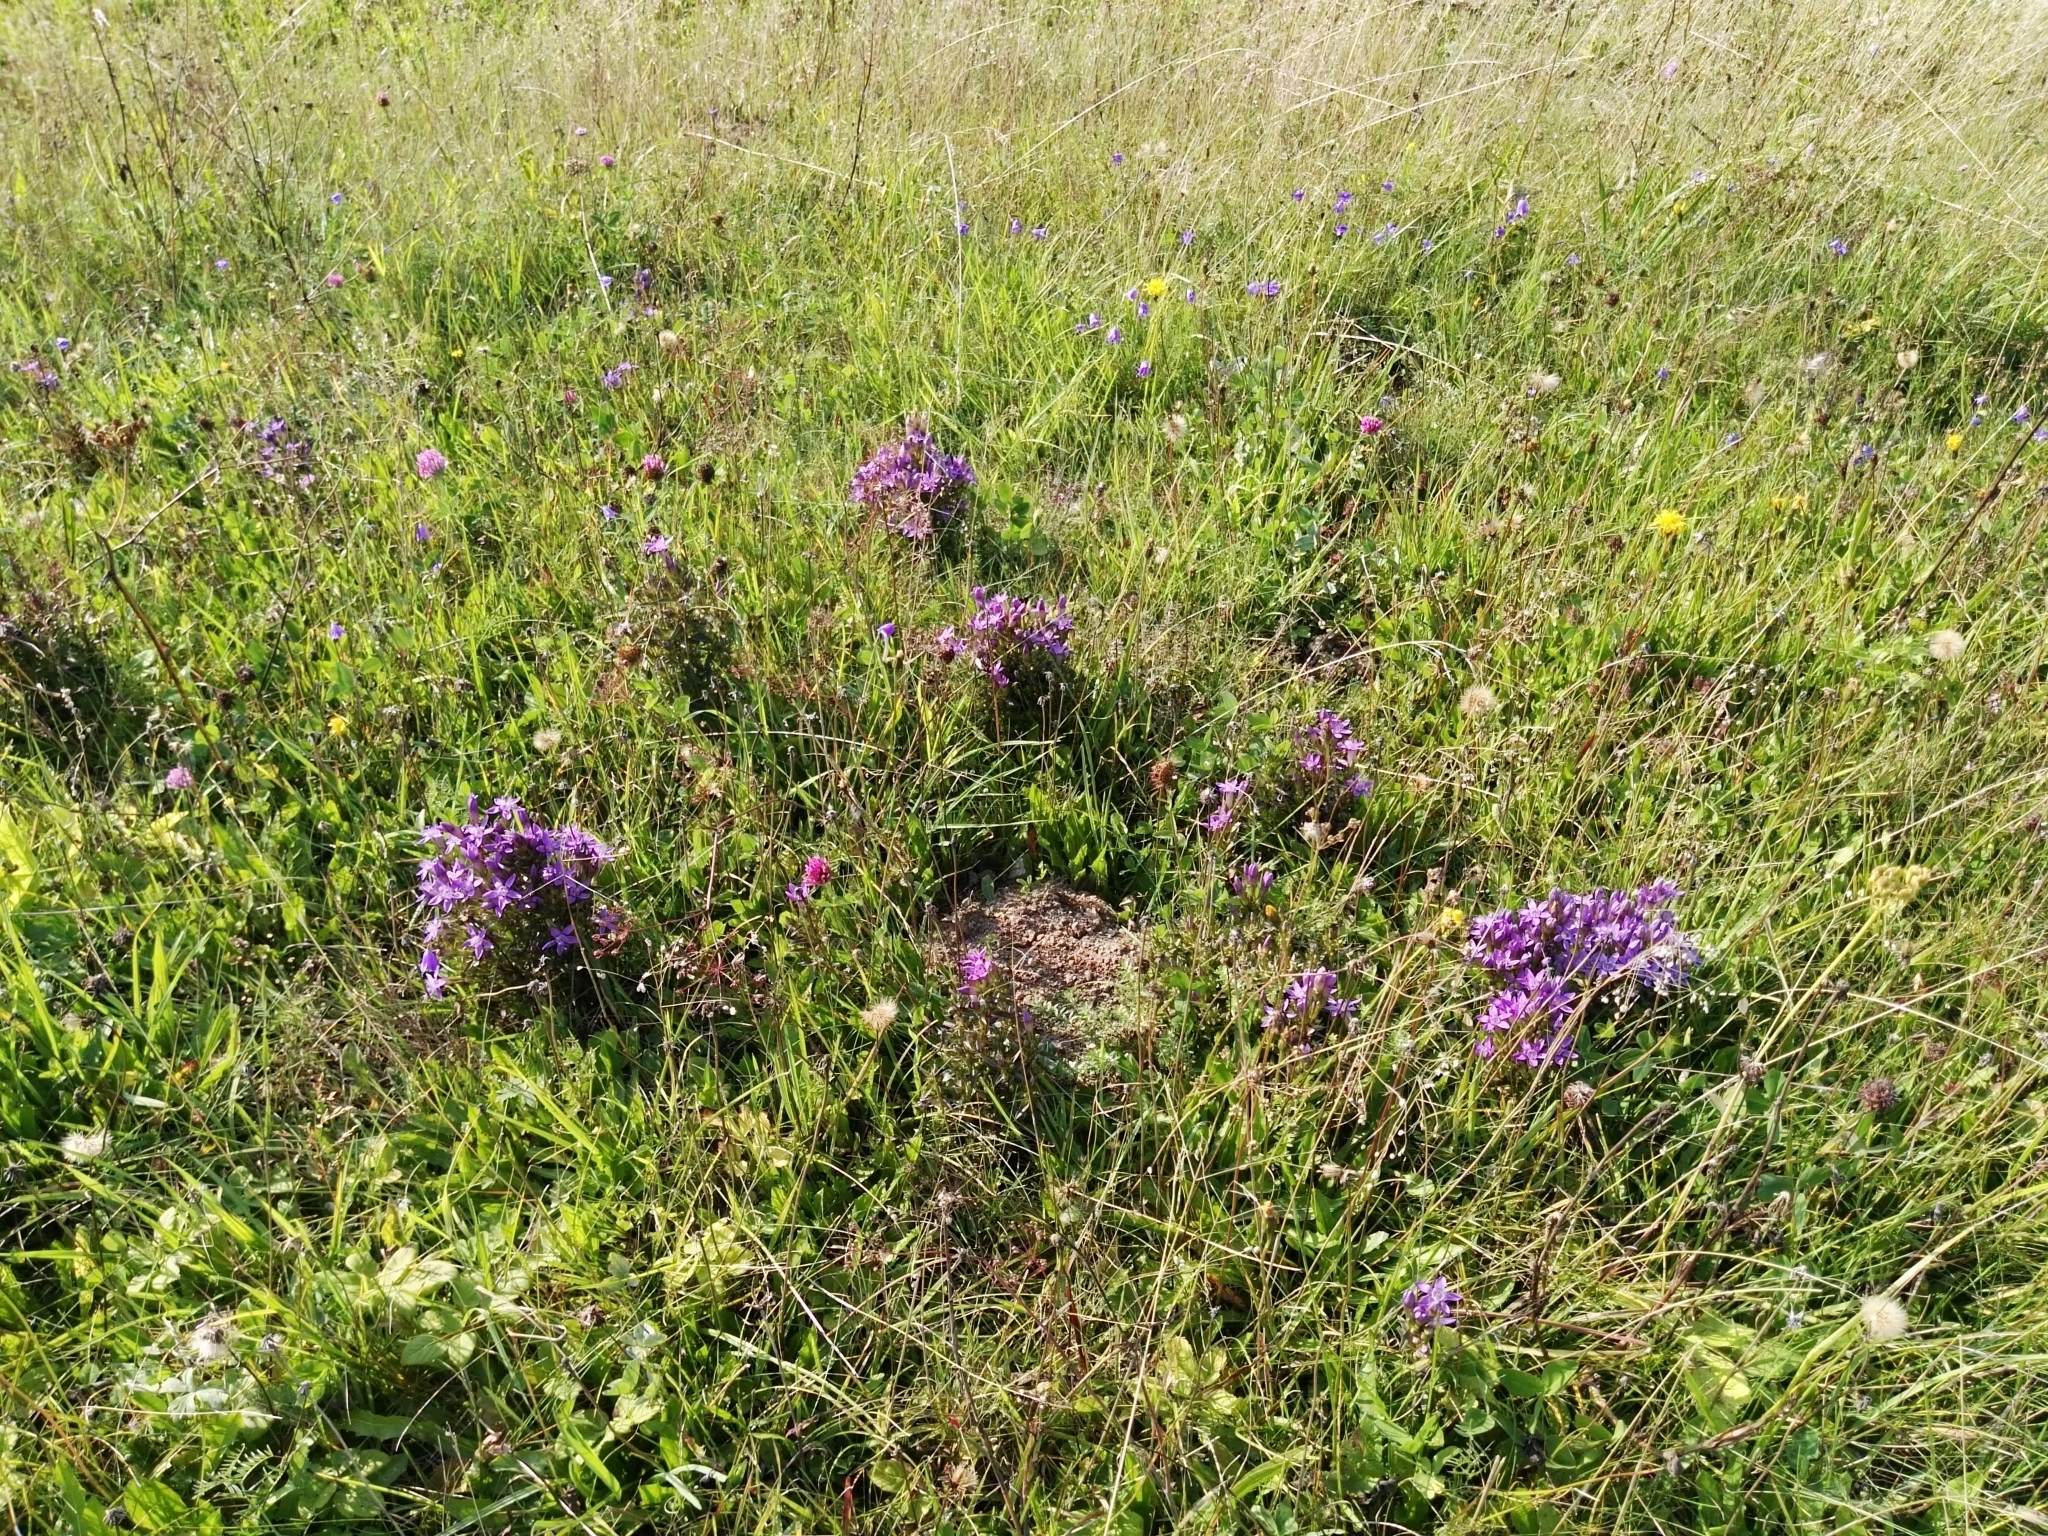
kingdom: Plantae
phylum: Tracheophyta
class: Magnoliopsida
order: Gentianales
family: Gentianaceae
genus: Gentianella
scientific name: Gentianella praecox
